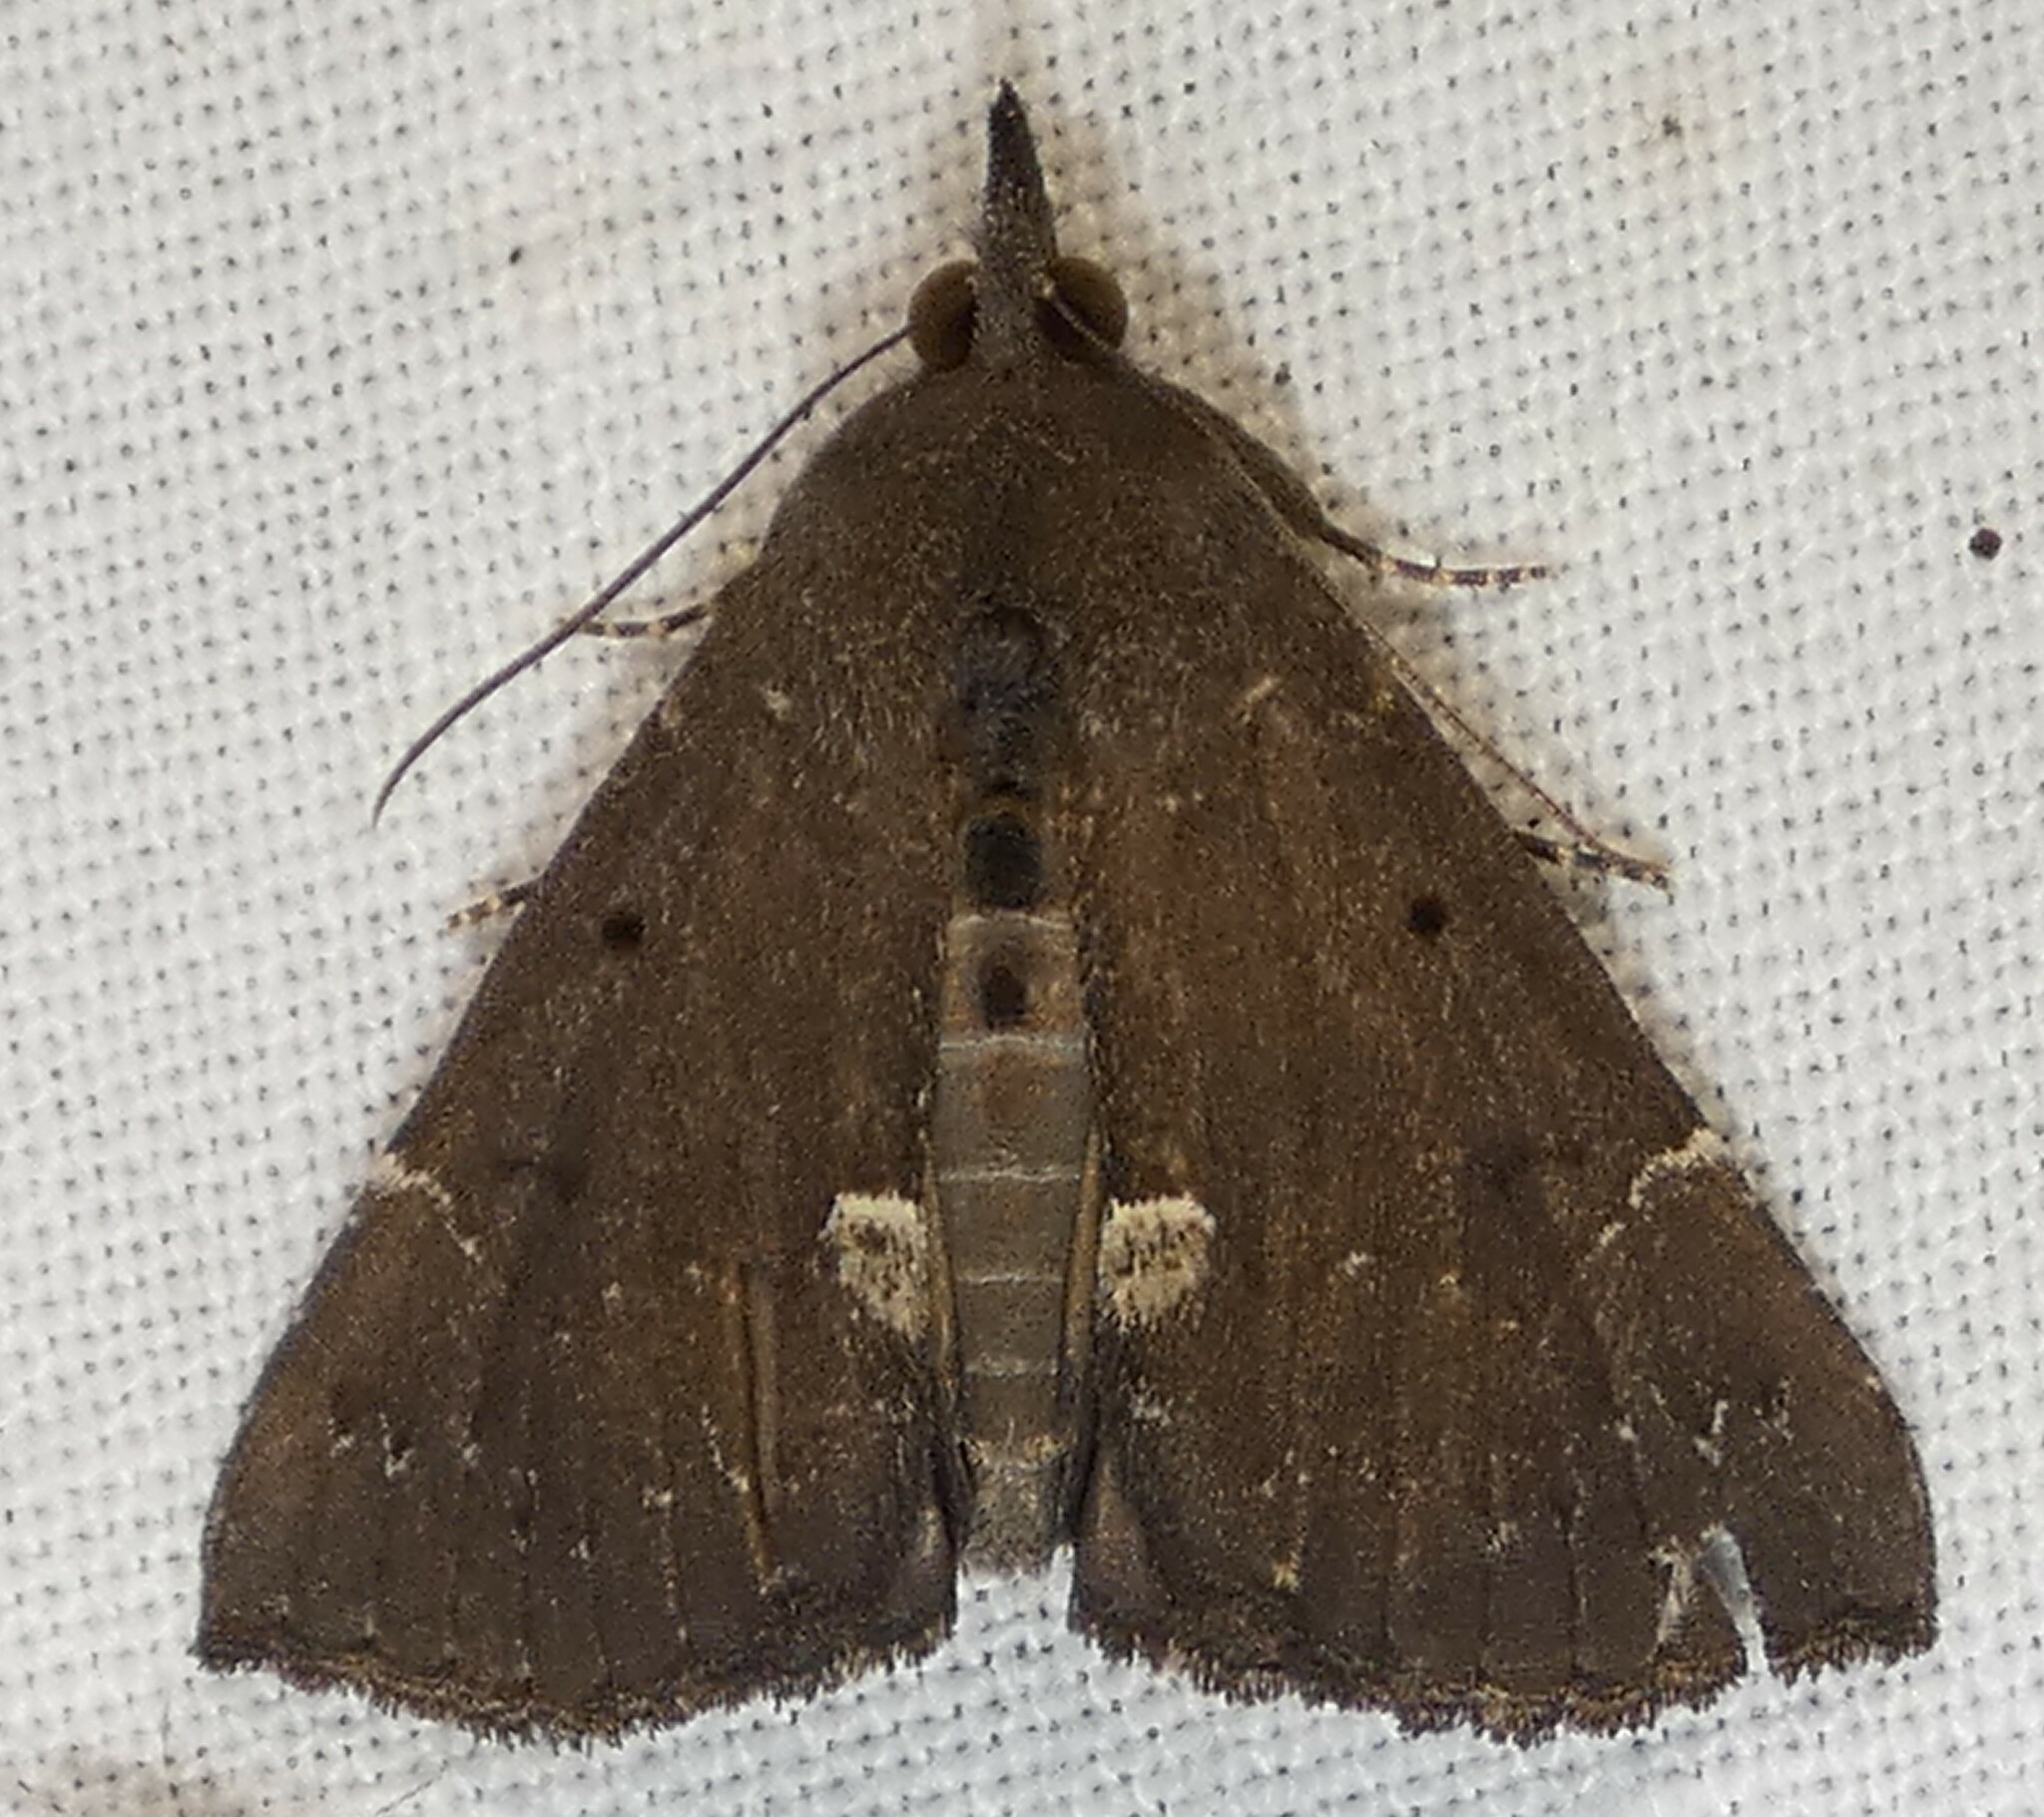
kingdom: Animalia
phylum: Arthropoda
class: Insecta
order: Lepidoptera
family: Erebidae
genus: Hypena
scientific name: Hypena bijugalis
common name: Dimorphic bomolocha moth
